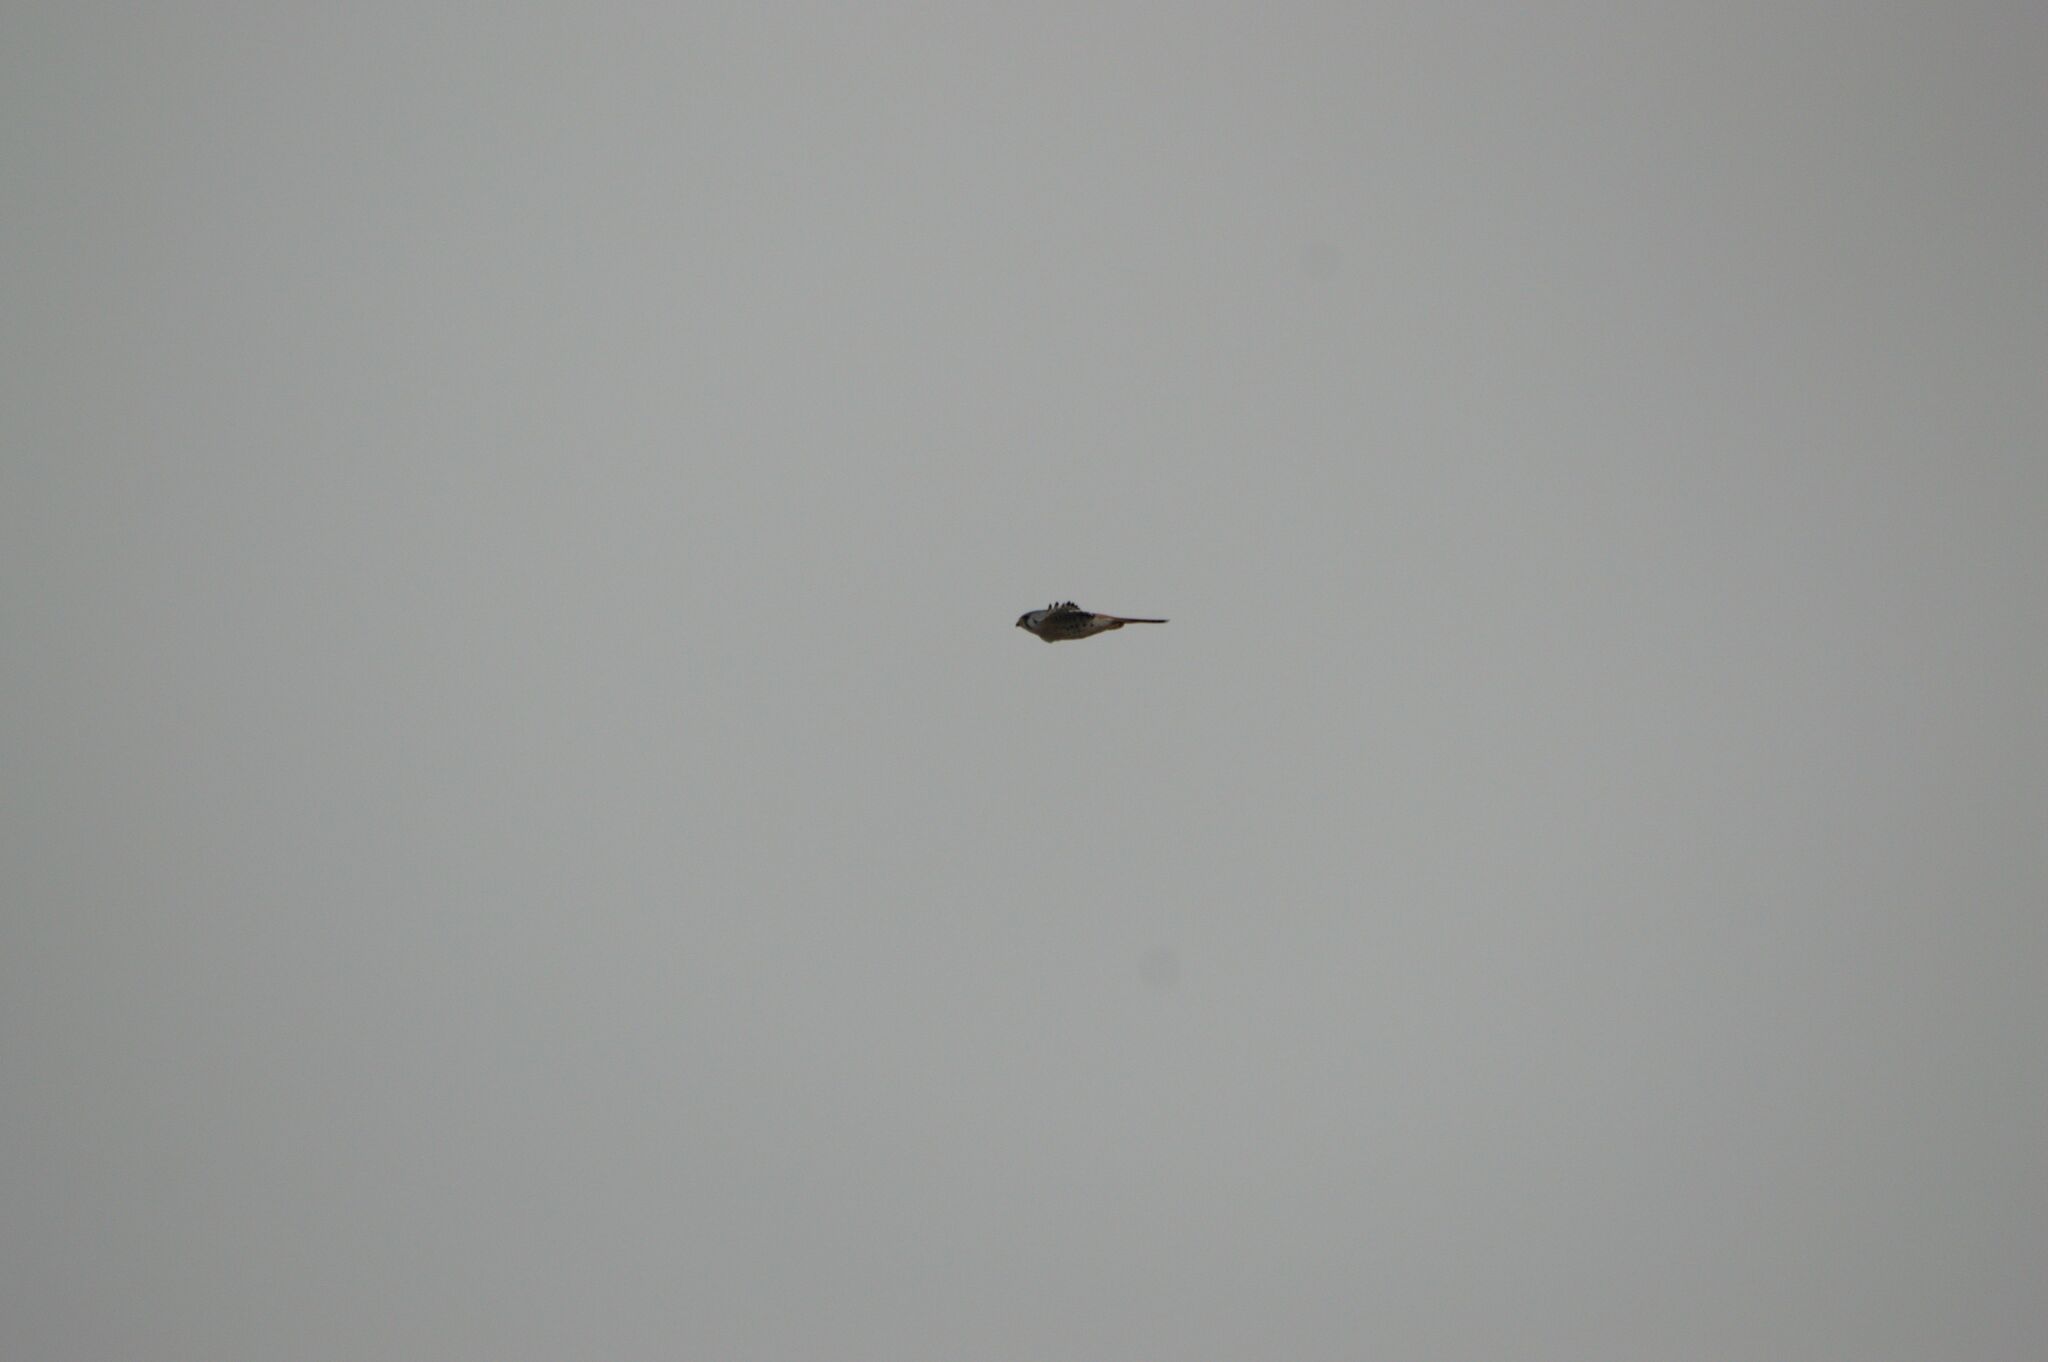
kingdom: Animalia
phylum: Chordata
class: Aves
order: Falconiformes
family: Falconidae
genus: Falco
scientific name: Falco sparverius
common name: American kestrel
